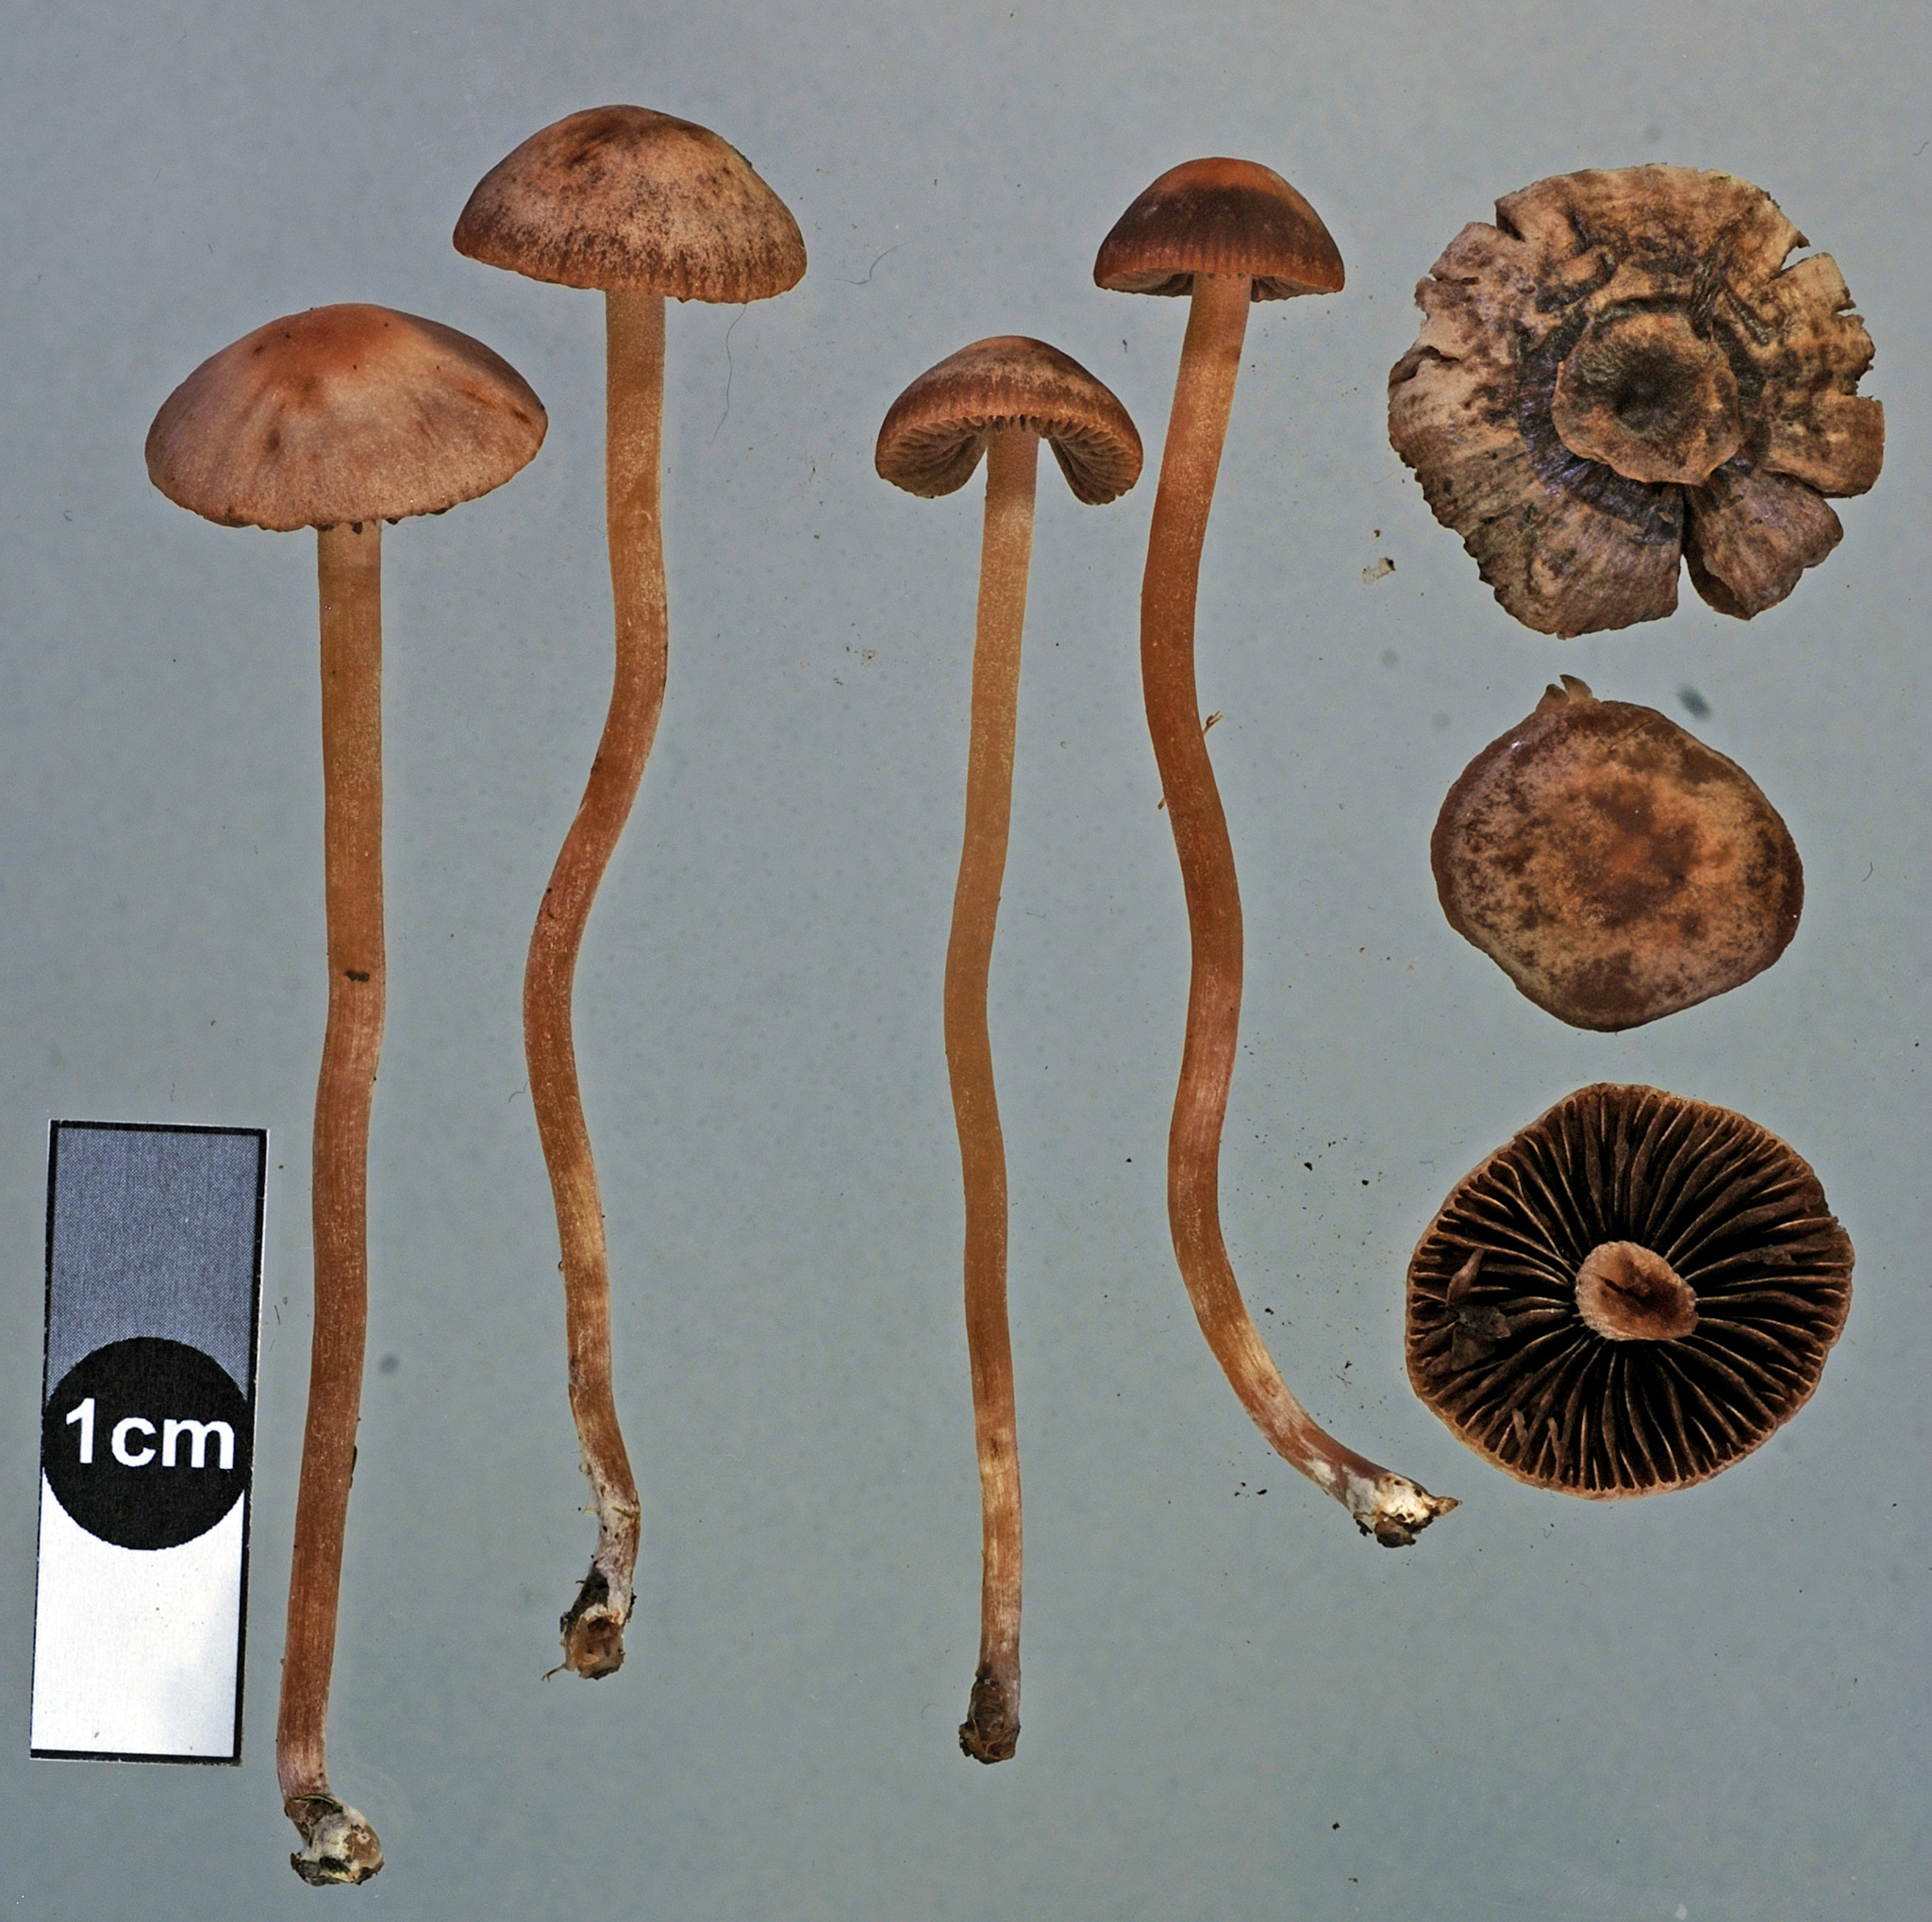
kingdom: Fungi
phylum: Basidiomycota
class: Agaricomycetes
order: Agaricales
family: Bolbitiaceae
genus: Panaeolina
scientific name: Panaeolina foenisecii
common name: Brown hay cap
